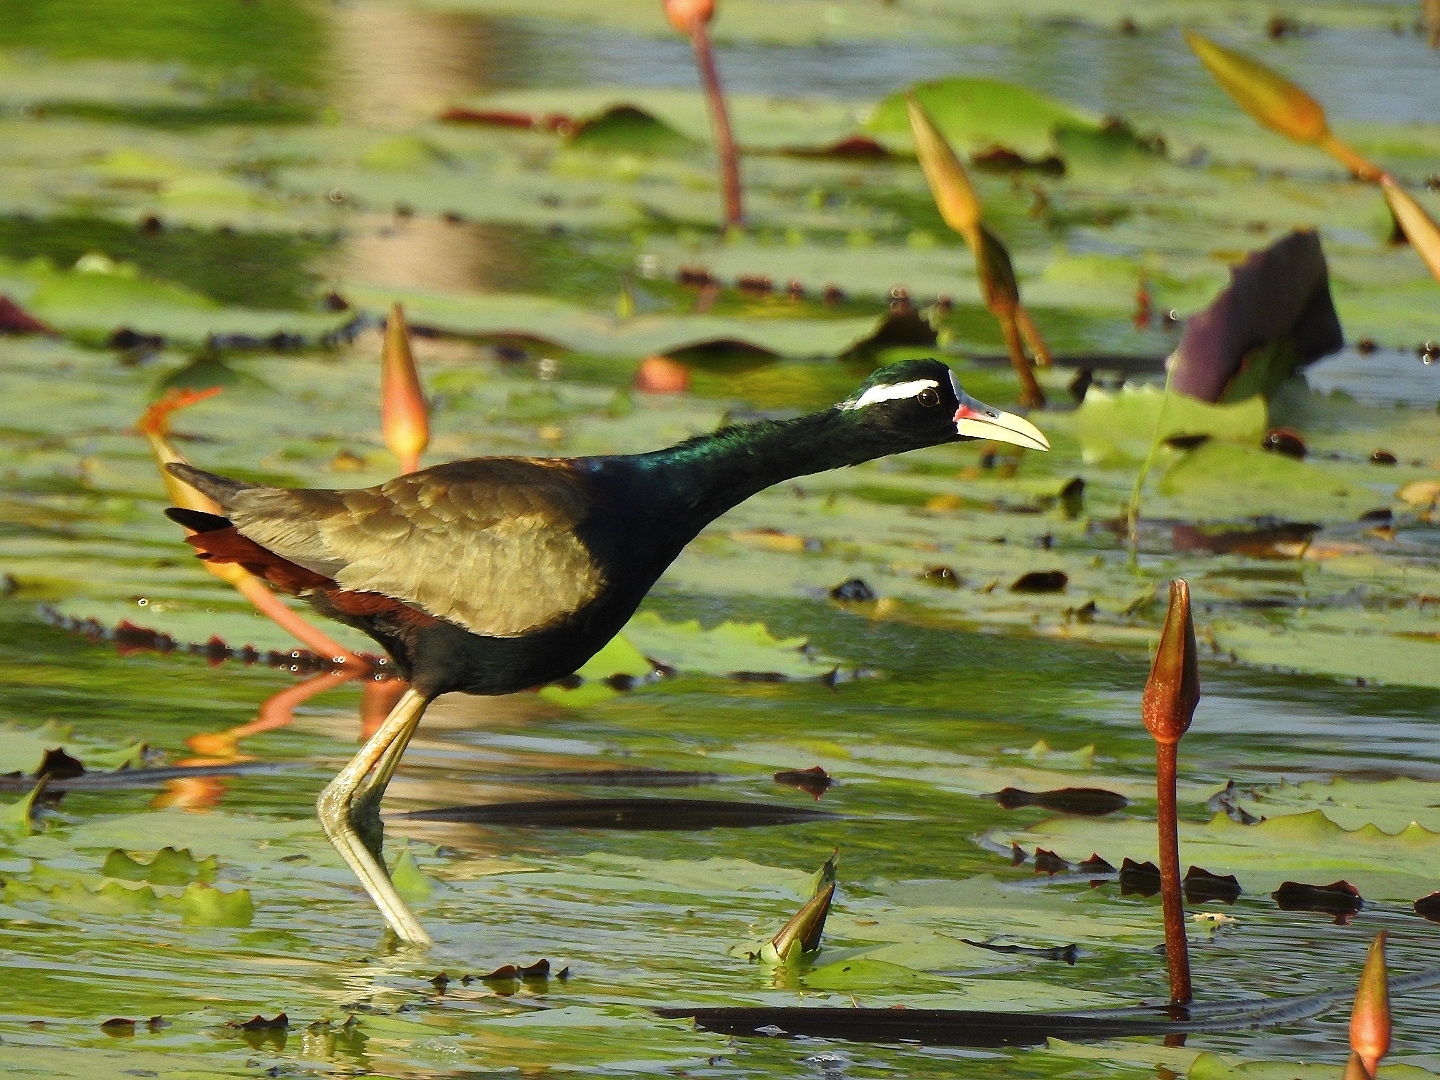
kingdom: Animalia
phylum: Chordata
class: Aves
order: Charadriiformes
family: Jacanidae
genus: Metopidius
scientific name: Metopidius indicus
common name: Bronze-winged jacana
